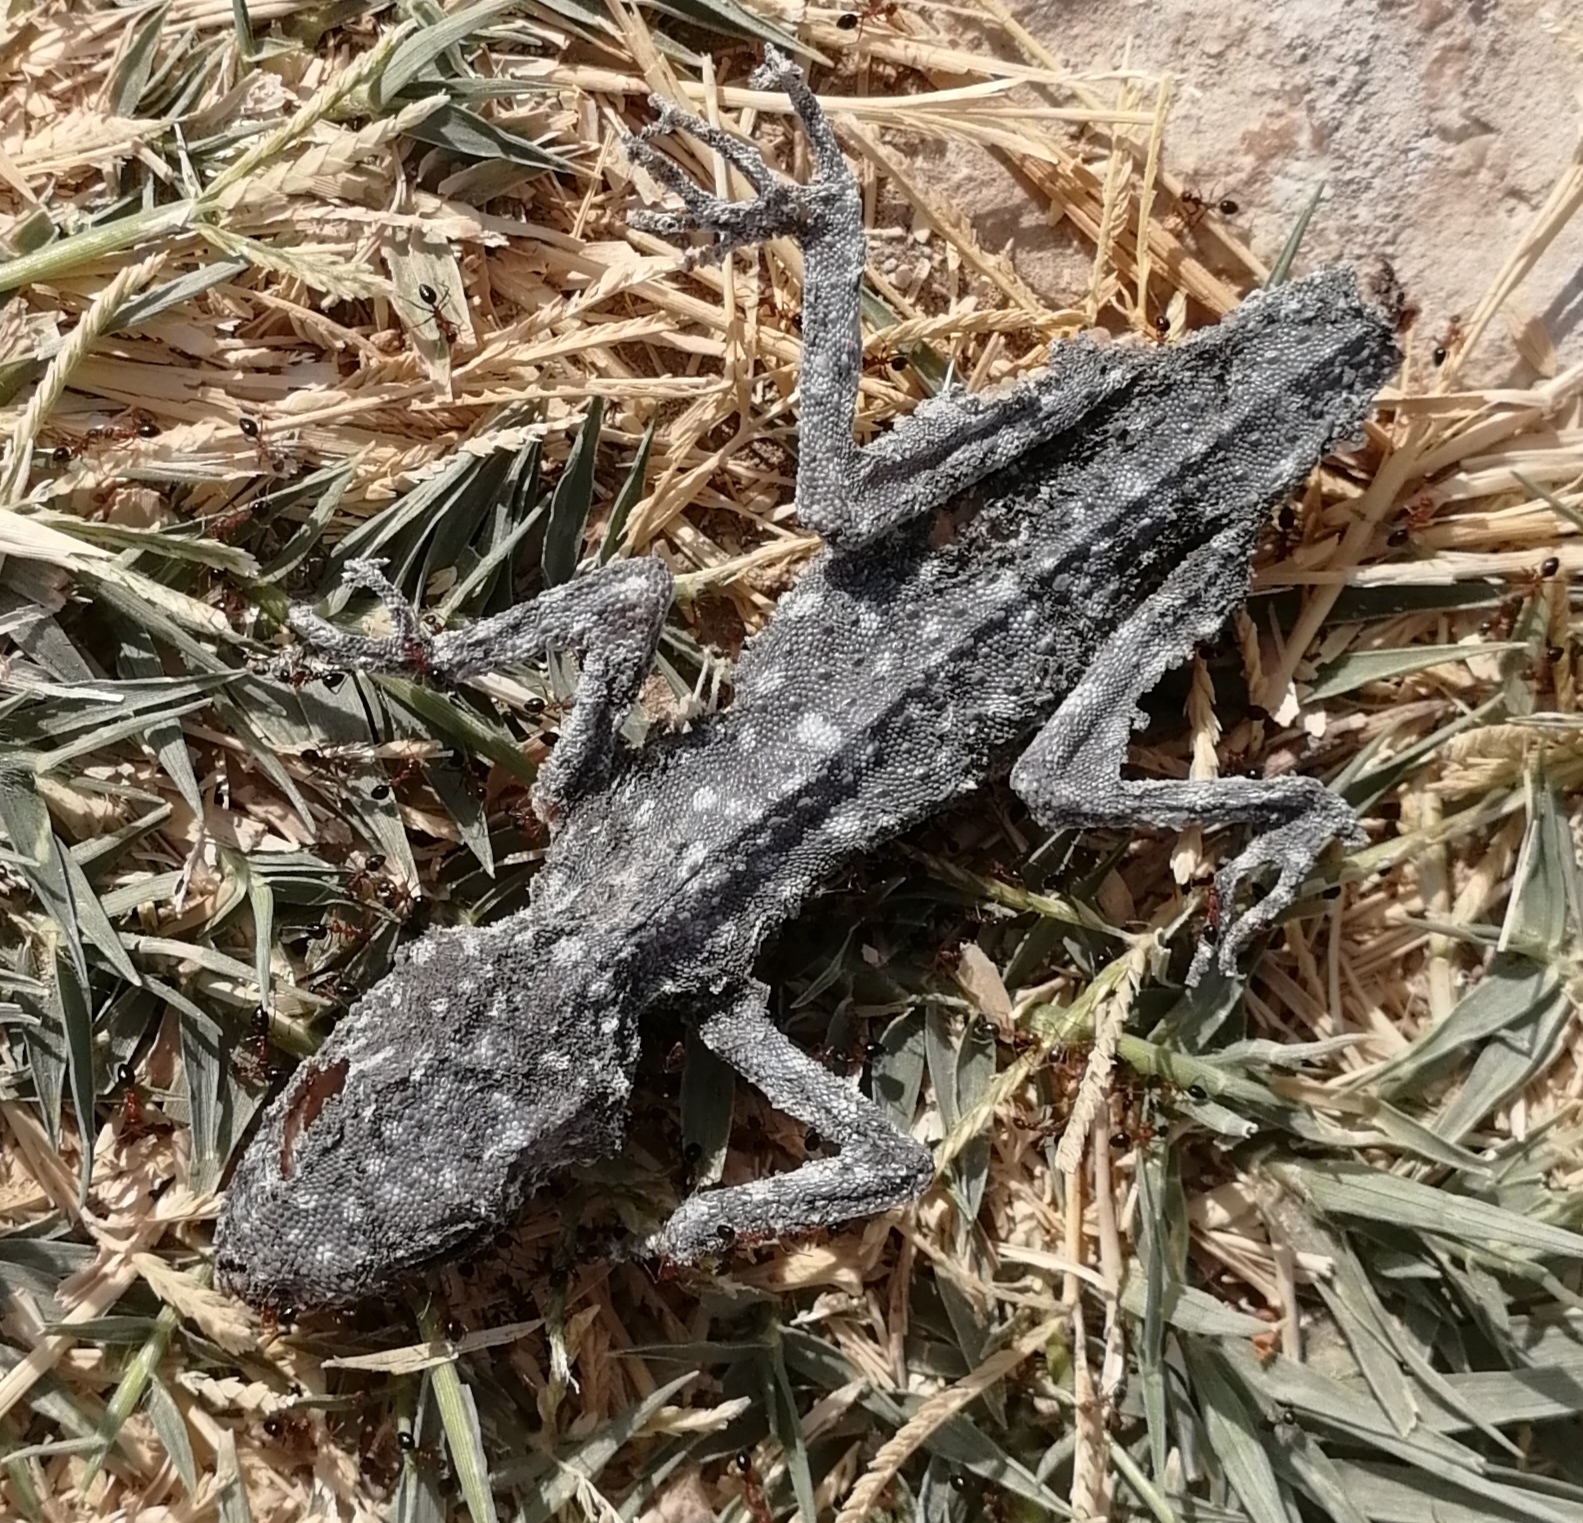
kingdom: Animalia
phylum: Chordata
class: Squamata
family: Phyllodactylidae
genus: Ptyodactylus
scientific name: Ptyodactylus puiseuxi
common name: Israeli fan-fingered gecko
